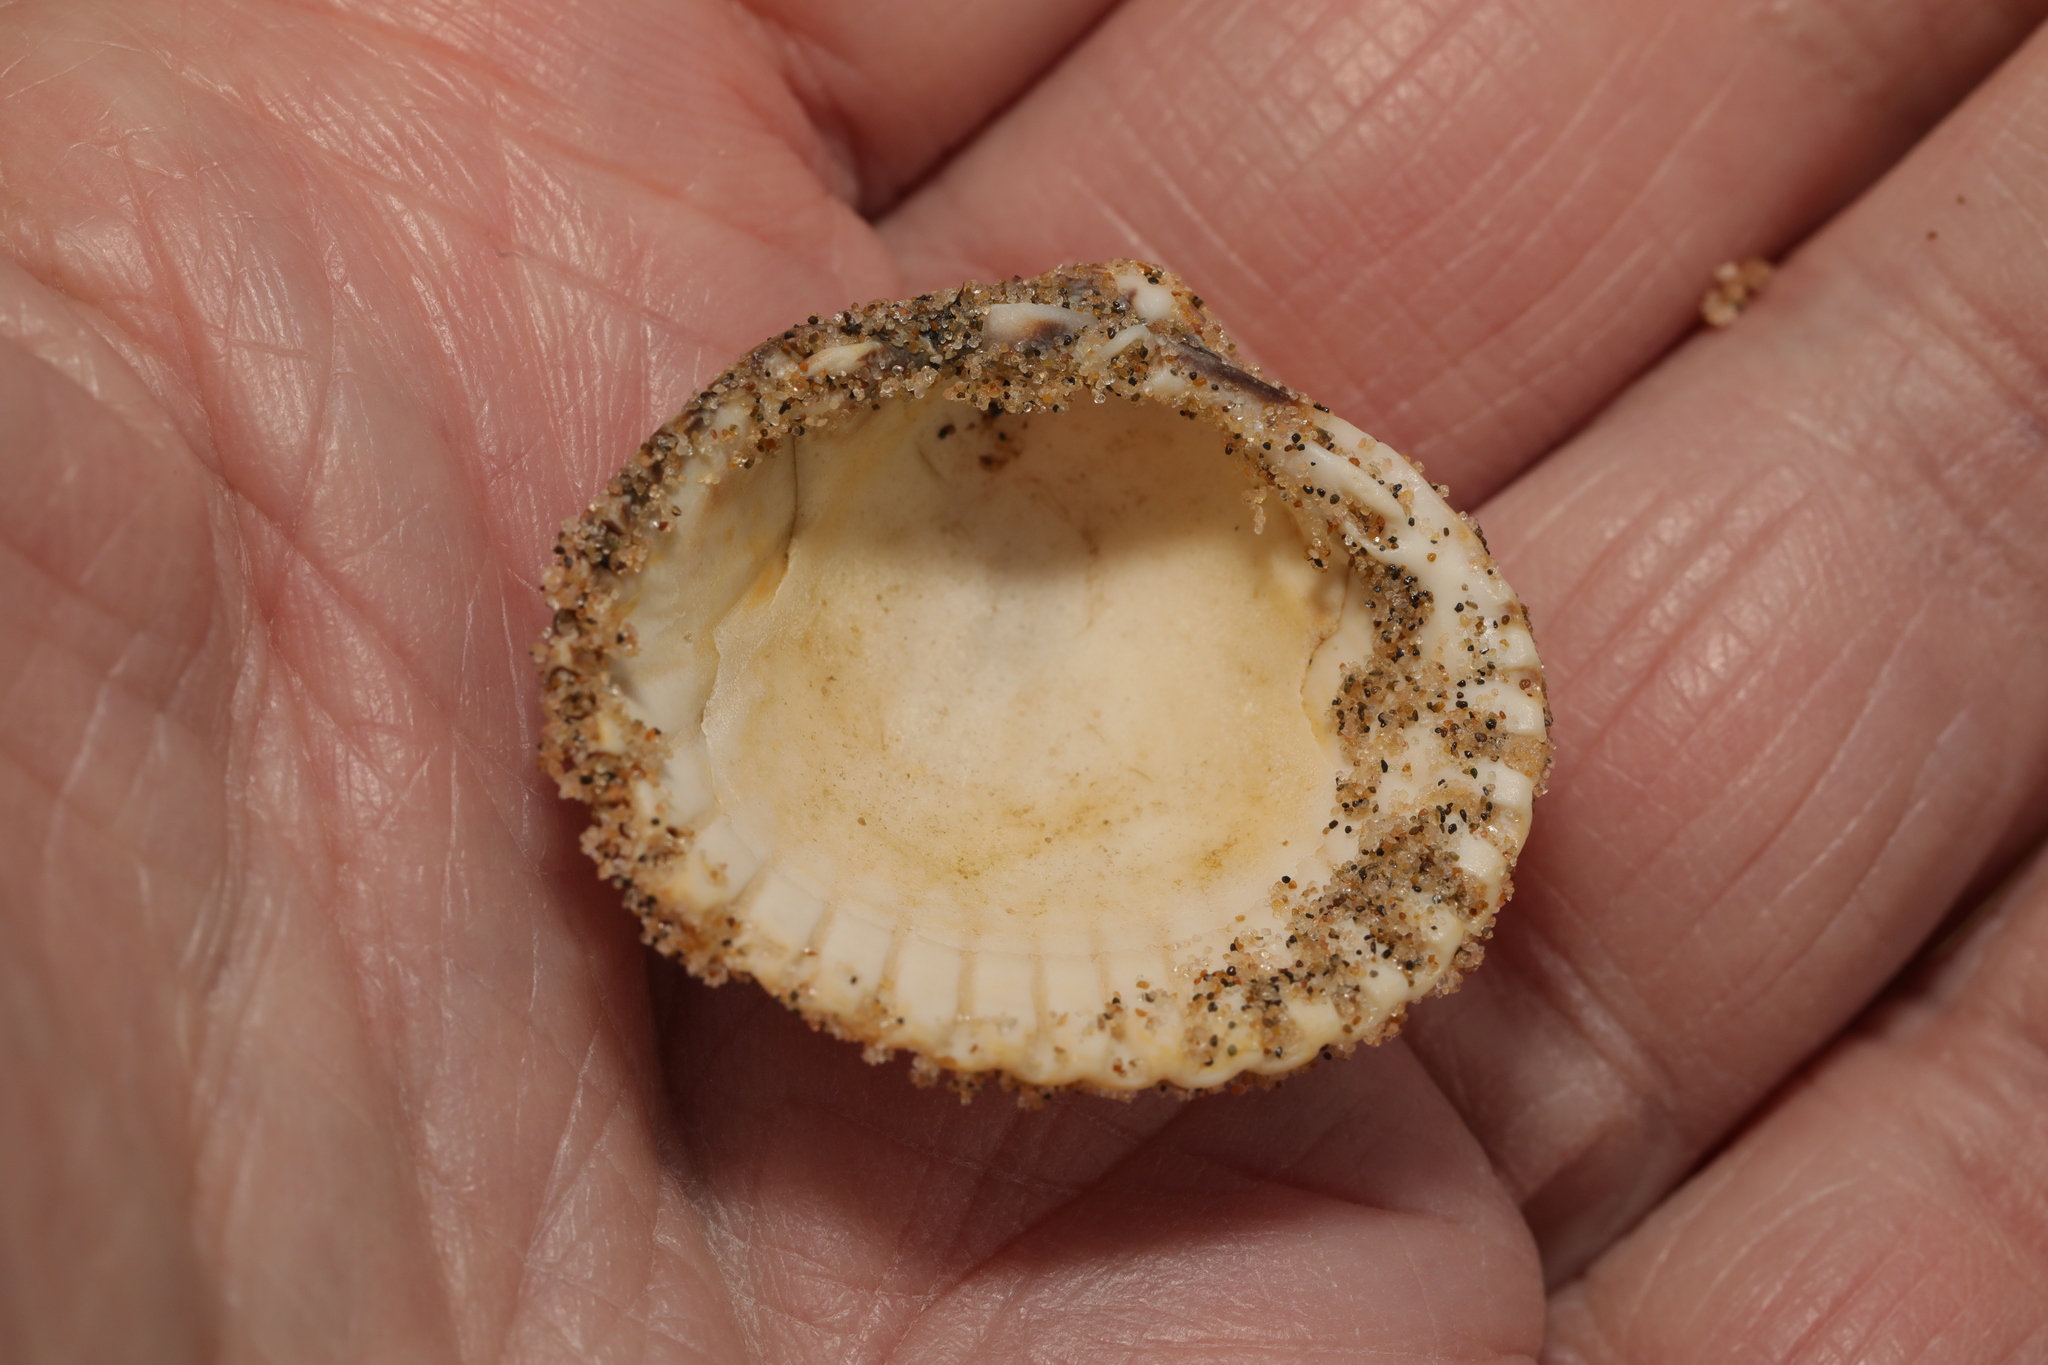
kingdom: Animalia
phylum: Mollusca
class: Bivalvia
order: Cardiida
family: Cardiidae
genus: Cerastoderma
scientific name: Cerastoderma edule
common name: Common cockle
